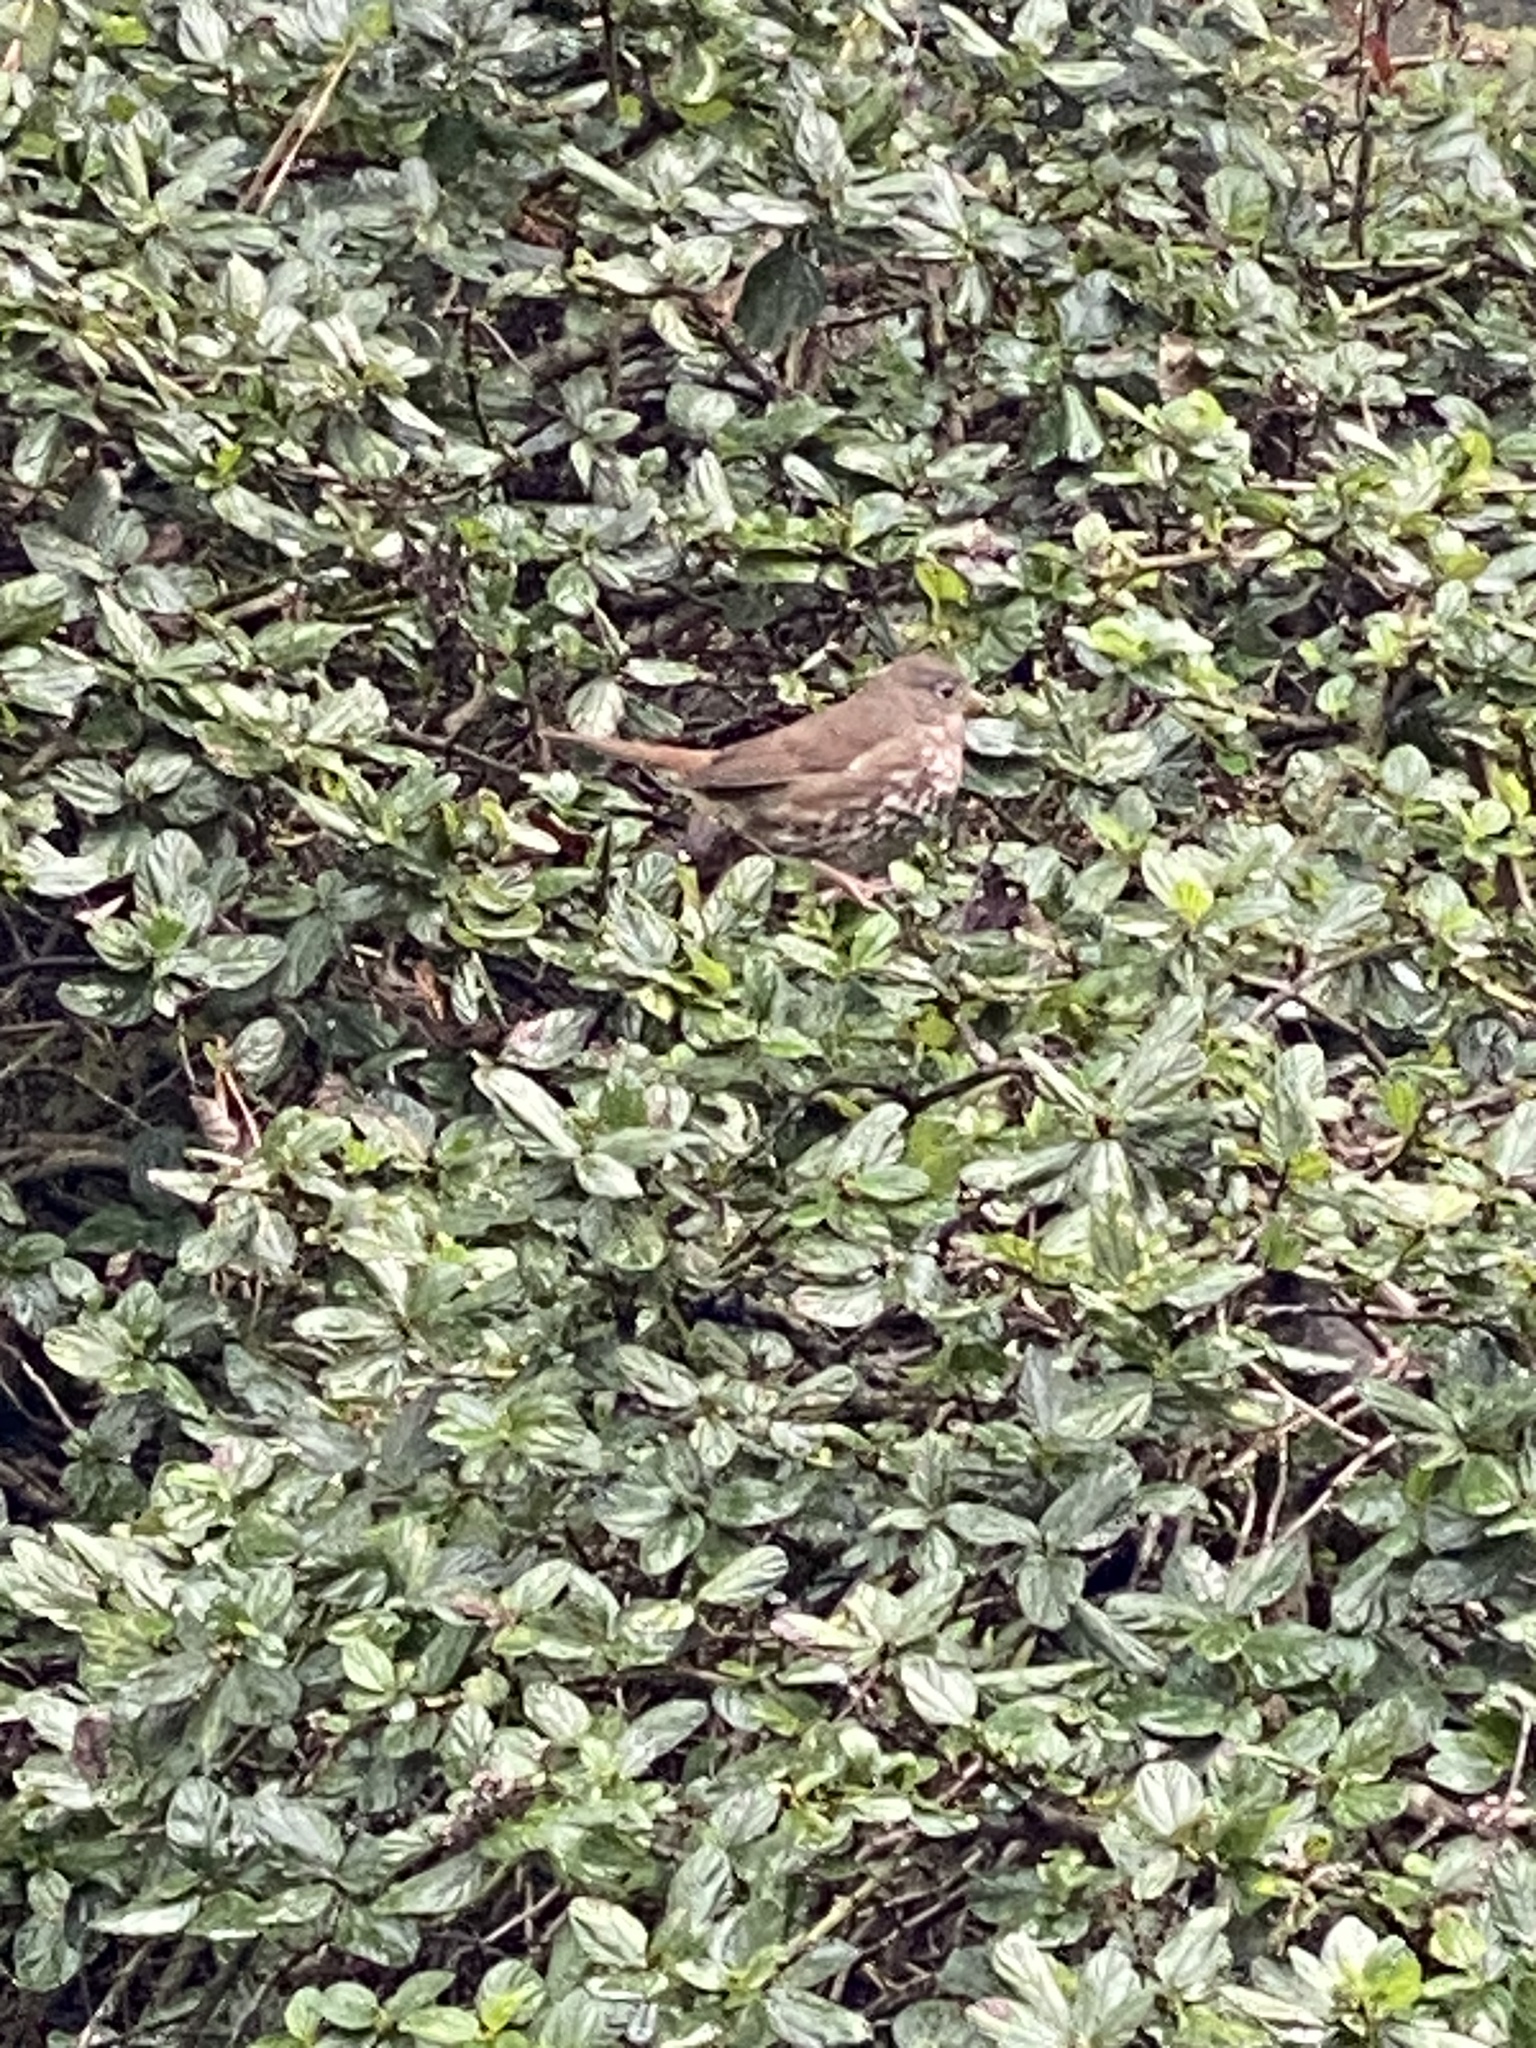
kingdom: Animalia
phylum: Chordata
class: Aves
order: Passeriformes
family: Passerellidae
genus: Passerella
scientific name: Passerella iliaca
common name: Fox sparrow
